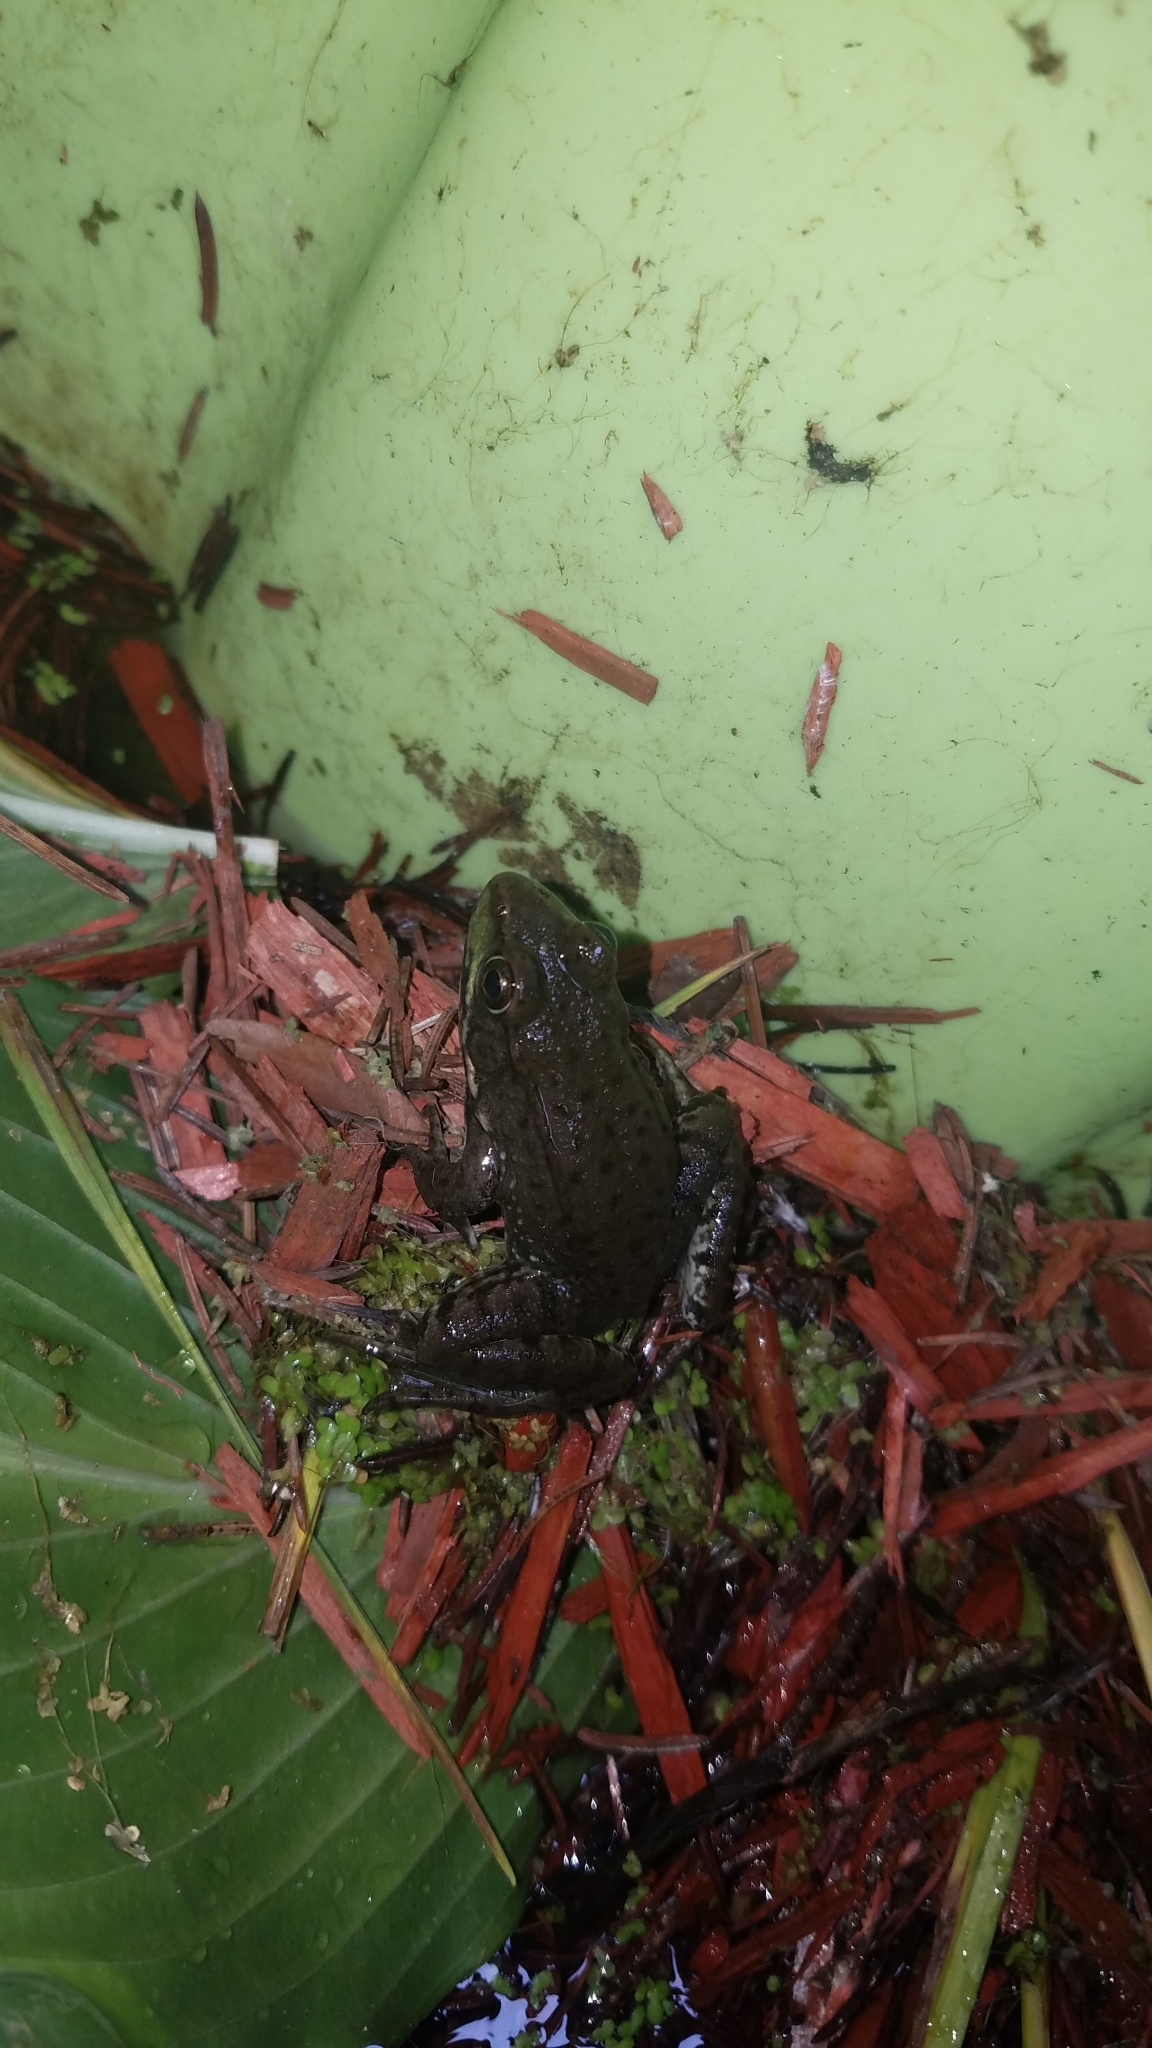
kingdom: Animalia
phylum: Chordata
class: Amphibia
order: Anura
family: Ranidae
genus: Lithobates
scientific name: Lithobates clamitans
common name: Green frog
